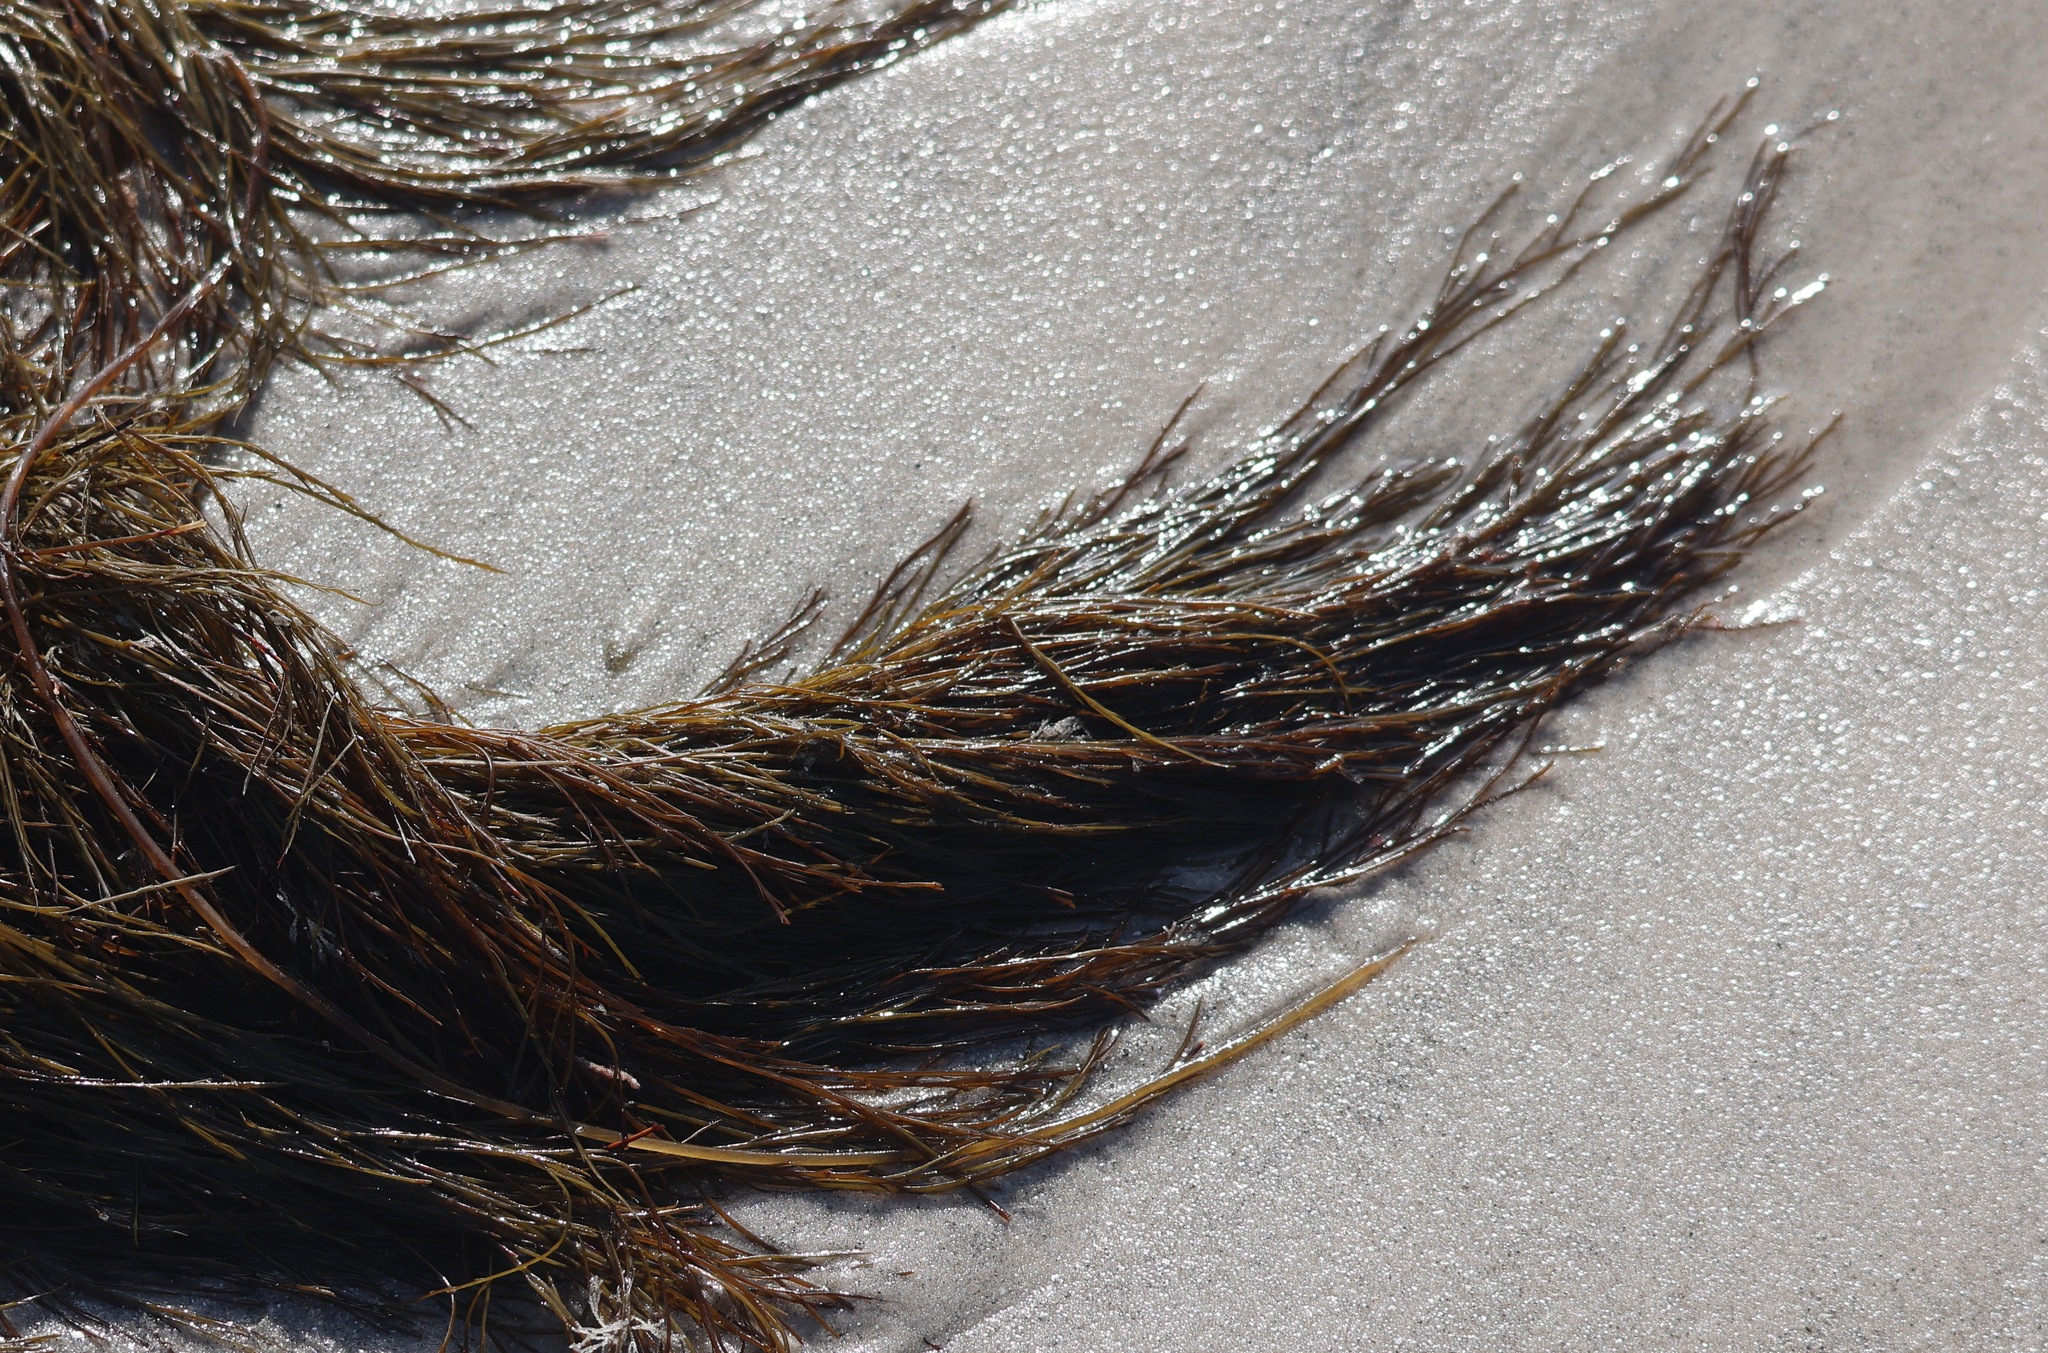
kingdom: Chromista
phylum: Ochrophyta
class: Phaeophyceae
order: Desmarestiales
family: Desmarestiaceae
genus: Desmarestia
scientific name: Desmarestia aculeata
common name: Witch's hair
